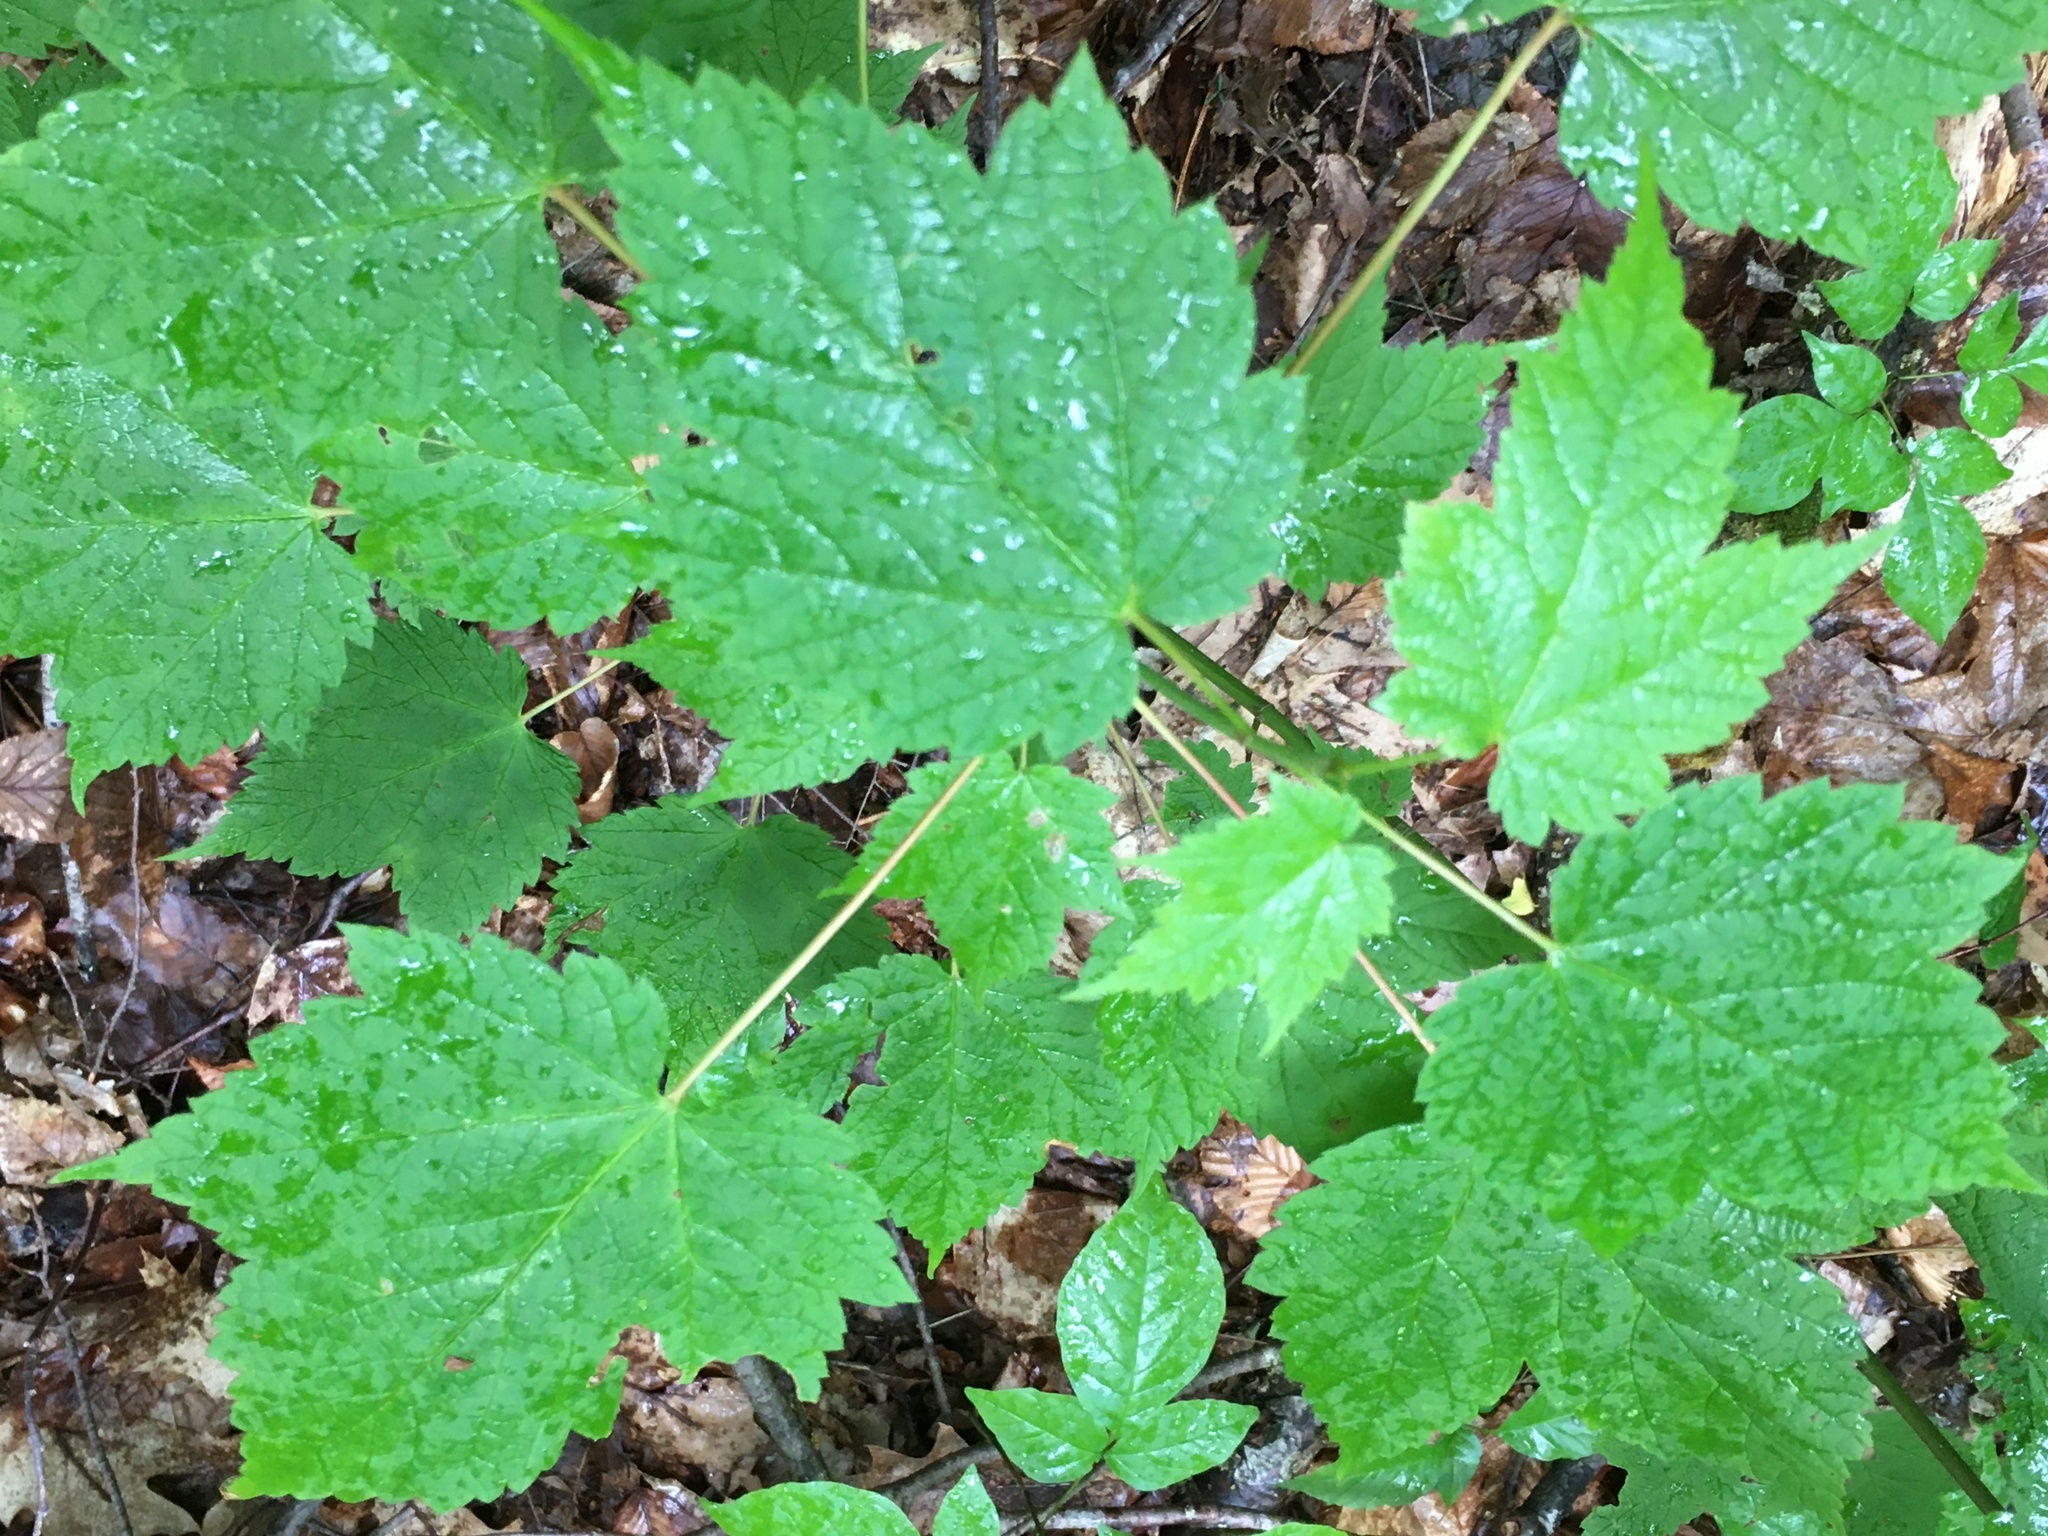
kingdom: Plantae
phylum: Tracheophyta
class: Magnoliopsida
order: Sapindales
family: Sapindaceae
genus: Acer
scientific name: Acer spicatum
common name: Mountain maple
